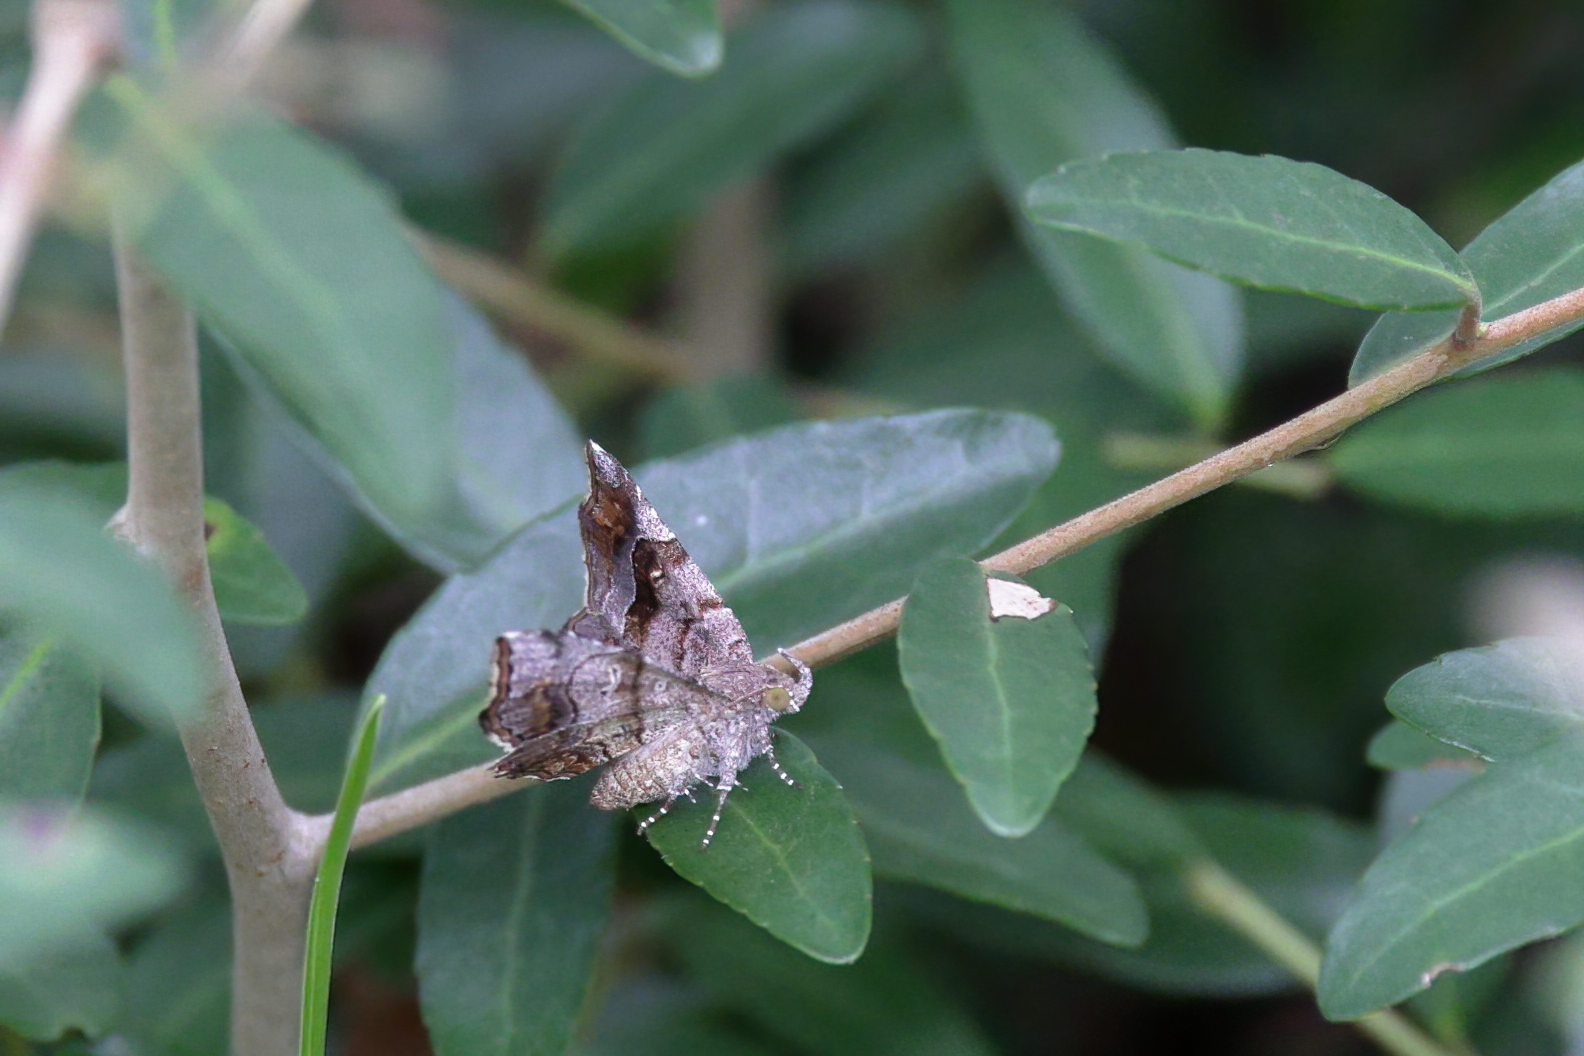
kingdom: Animalia
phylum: Arthropoda
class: Insecta
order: Lepidoptera
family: Erebidae
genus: Pangrapta
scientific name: Pangrapta decoralis
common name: Decorated owlet
